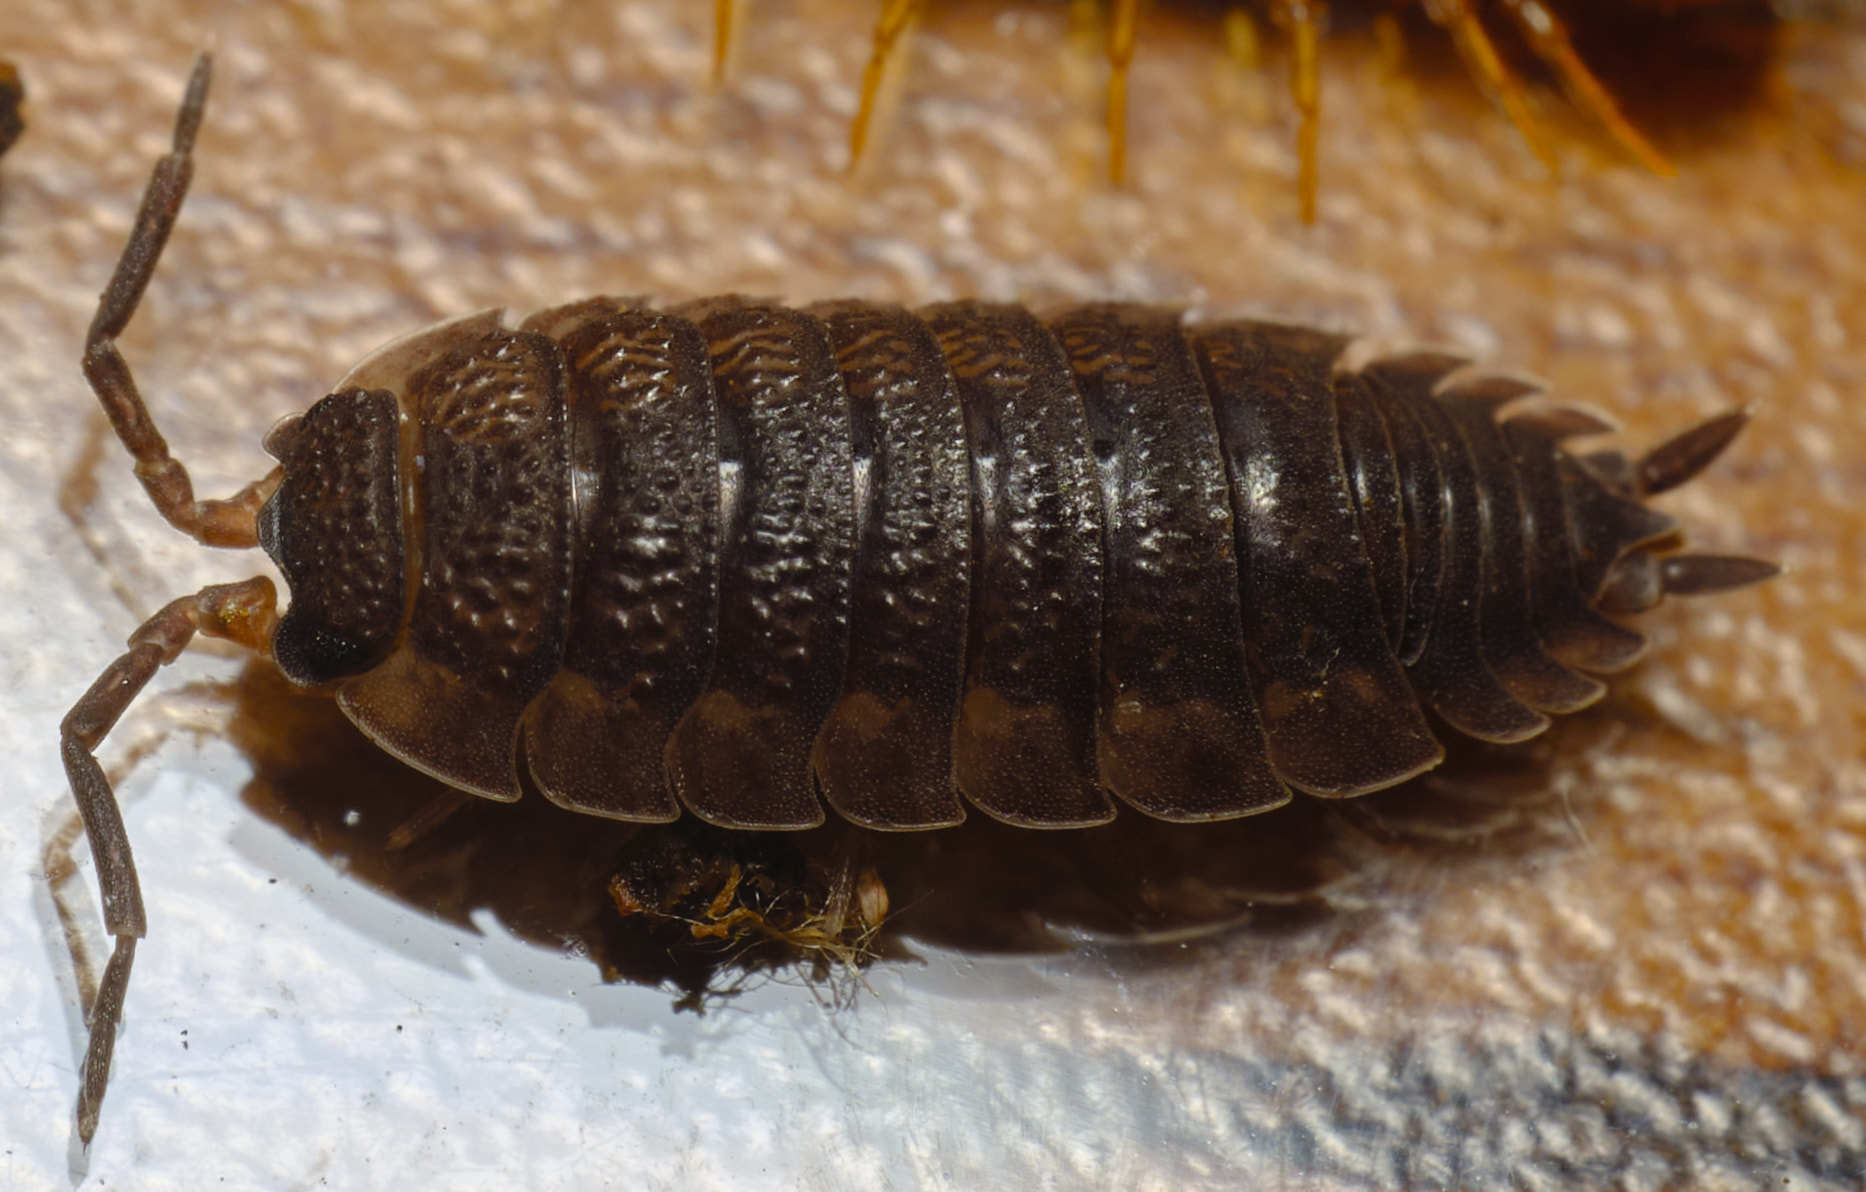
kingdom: Animalia
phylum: Arthropoda
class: Malacostraca
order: Isopoda
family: Porcellionidae
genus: Porcellio
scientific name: Porcellio scaber
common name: Common rough woodlouse
